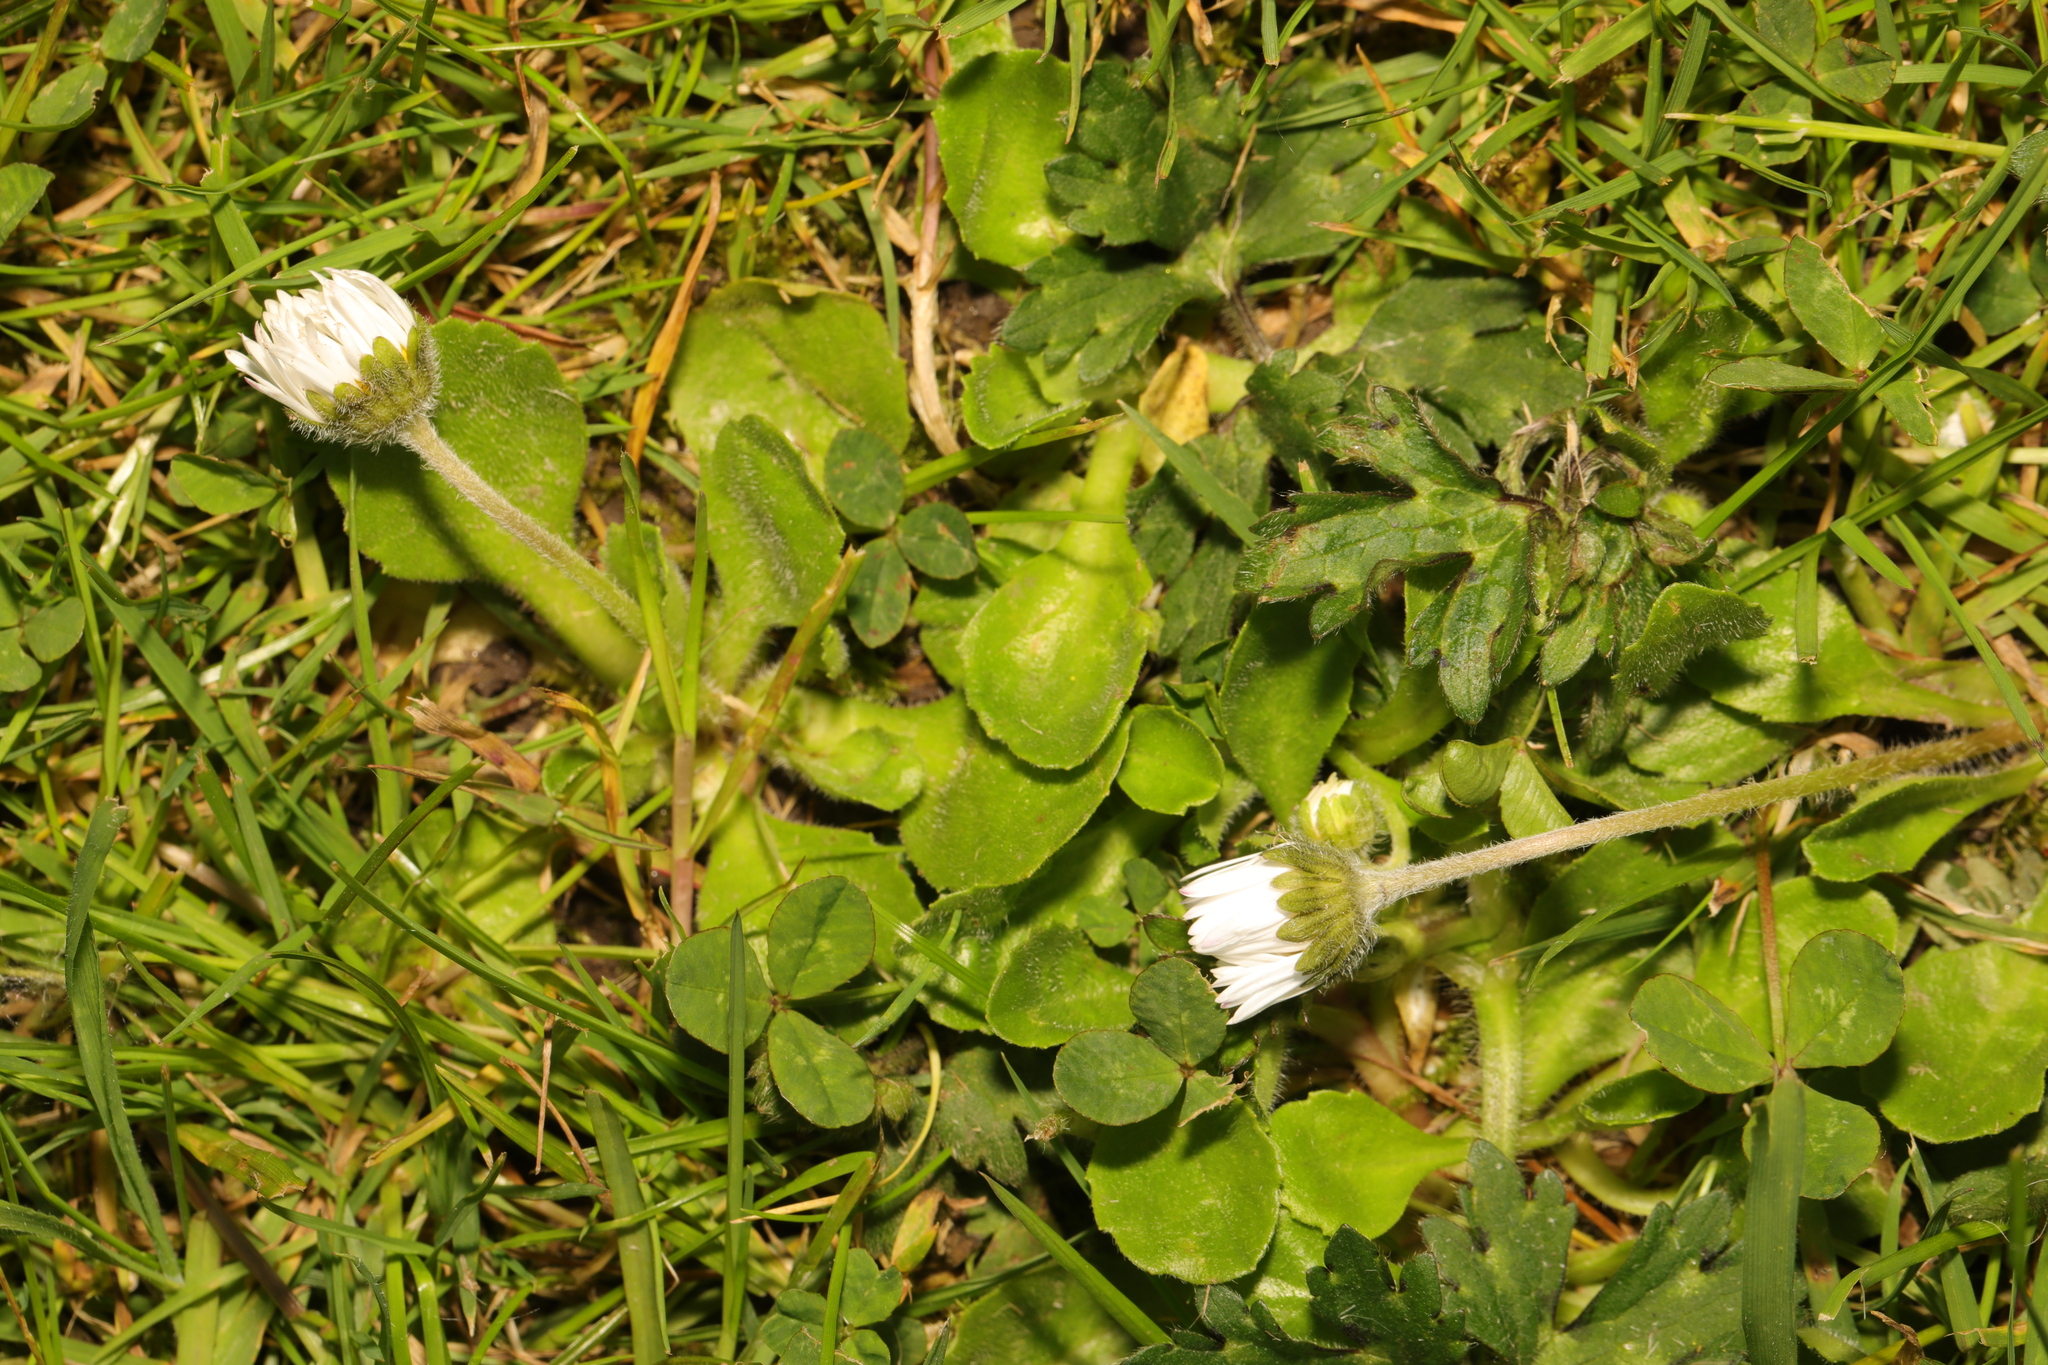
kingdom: Plantae
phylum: Tracheophyta
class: Magnoliopsida
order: Asterales
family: Asteraceae
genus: Bellis
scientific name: Bellis perennis
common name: Lawndaisy
